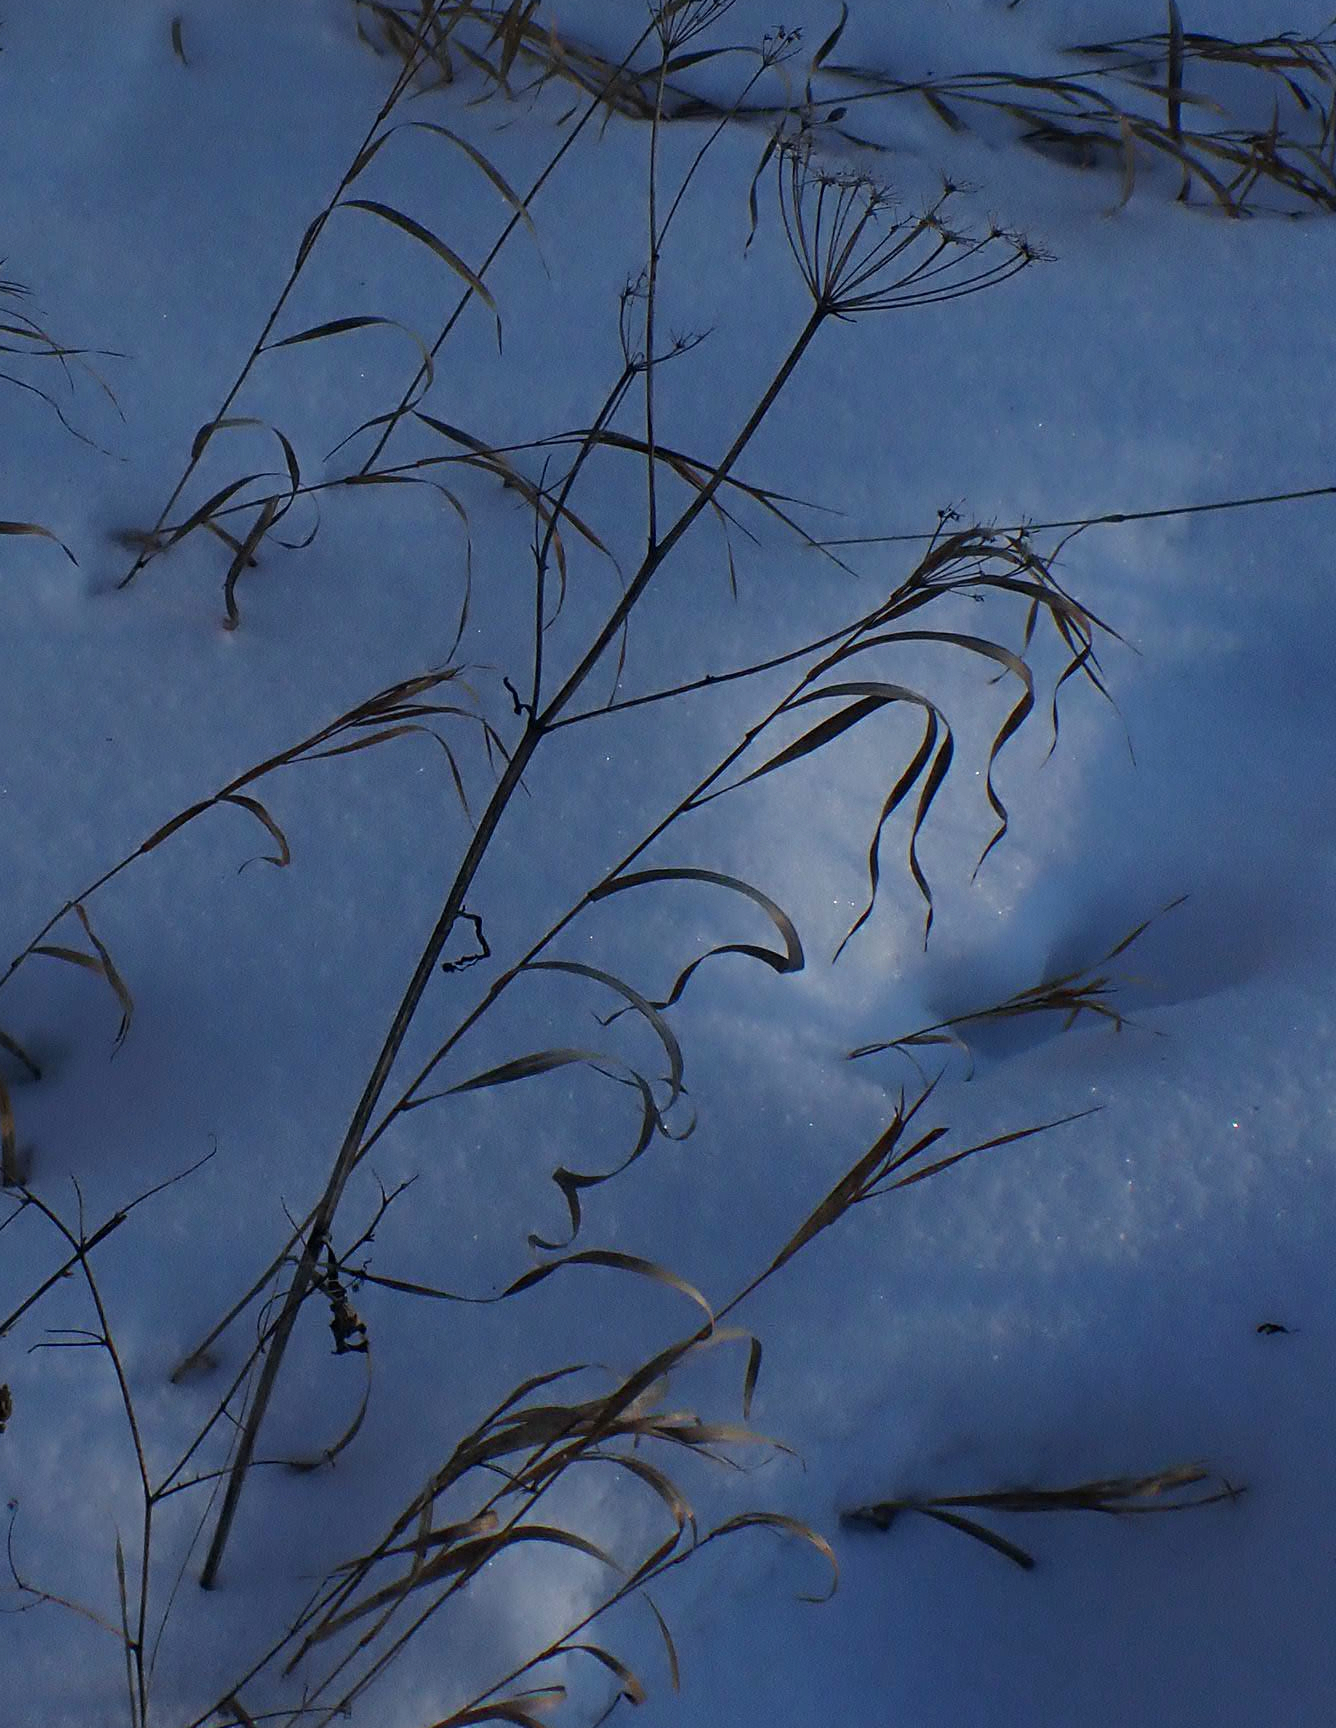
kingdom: Plantae
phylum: Tracheophyta
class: Magnoliopsida
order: Apiales
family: Apiaceae
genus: Pastinaca
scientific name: Pastinaca sativa
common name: Wild parsnip
